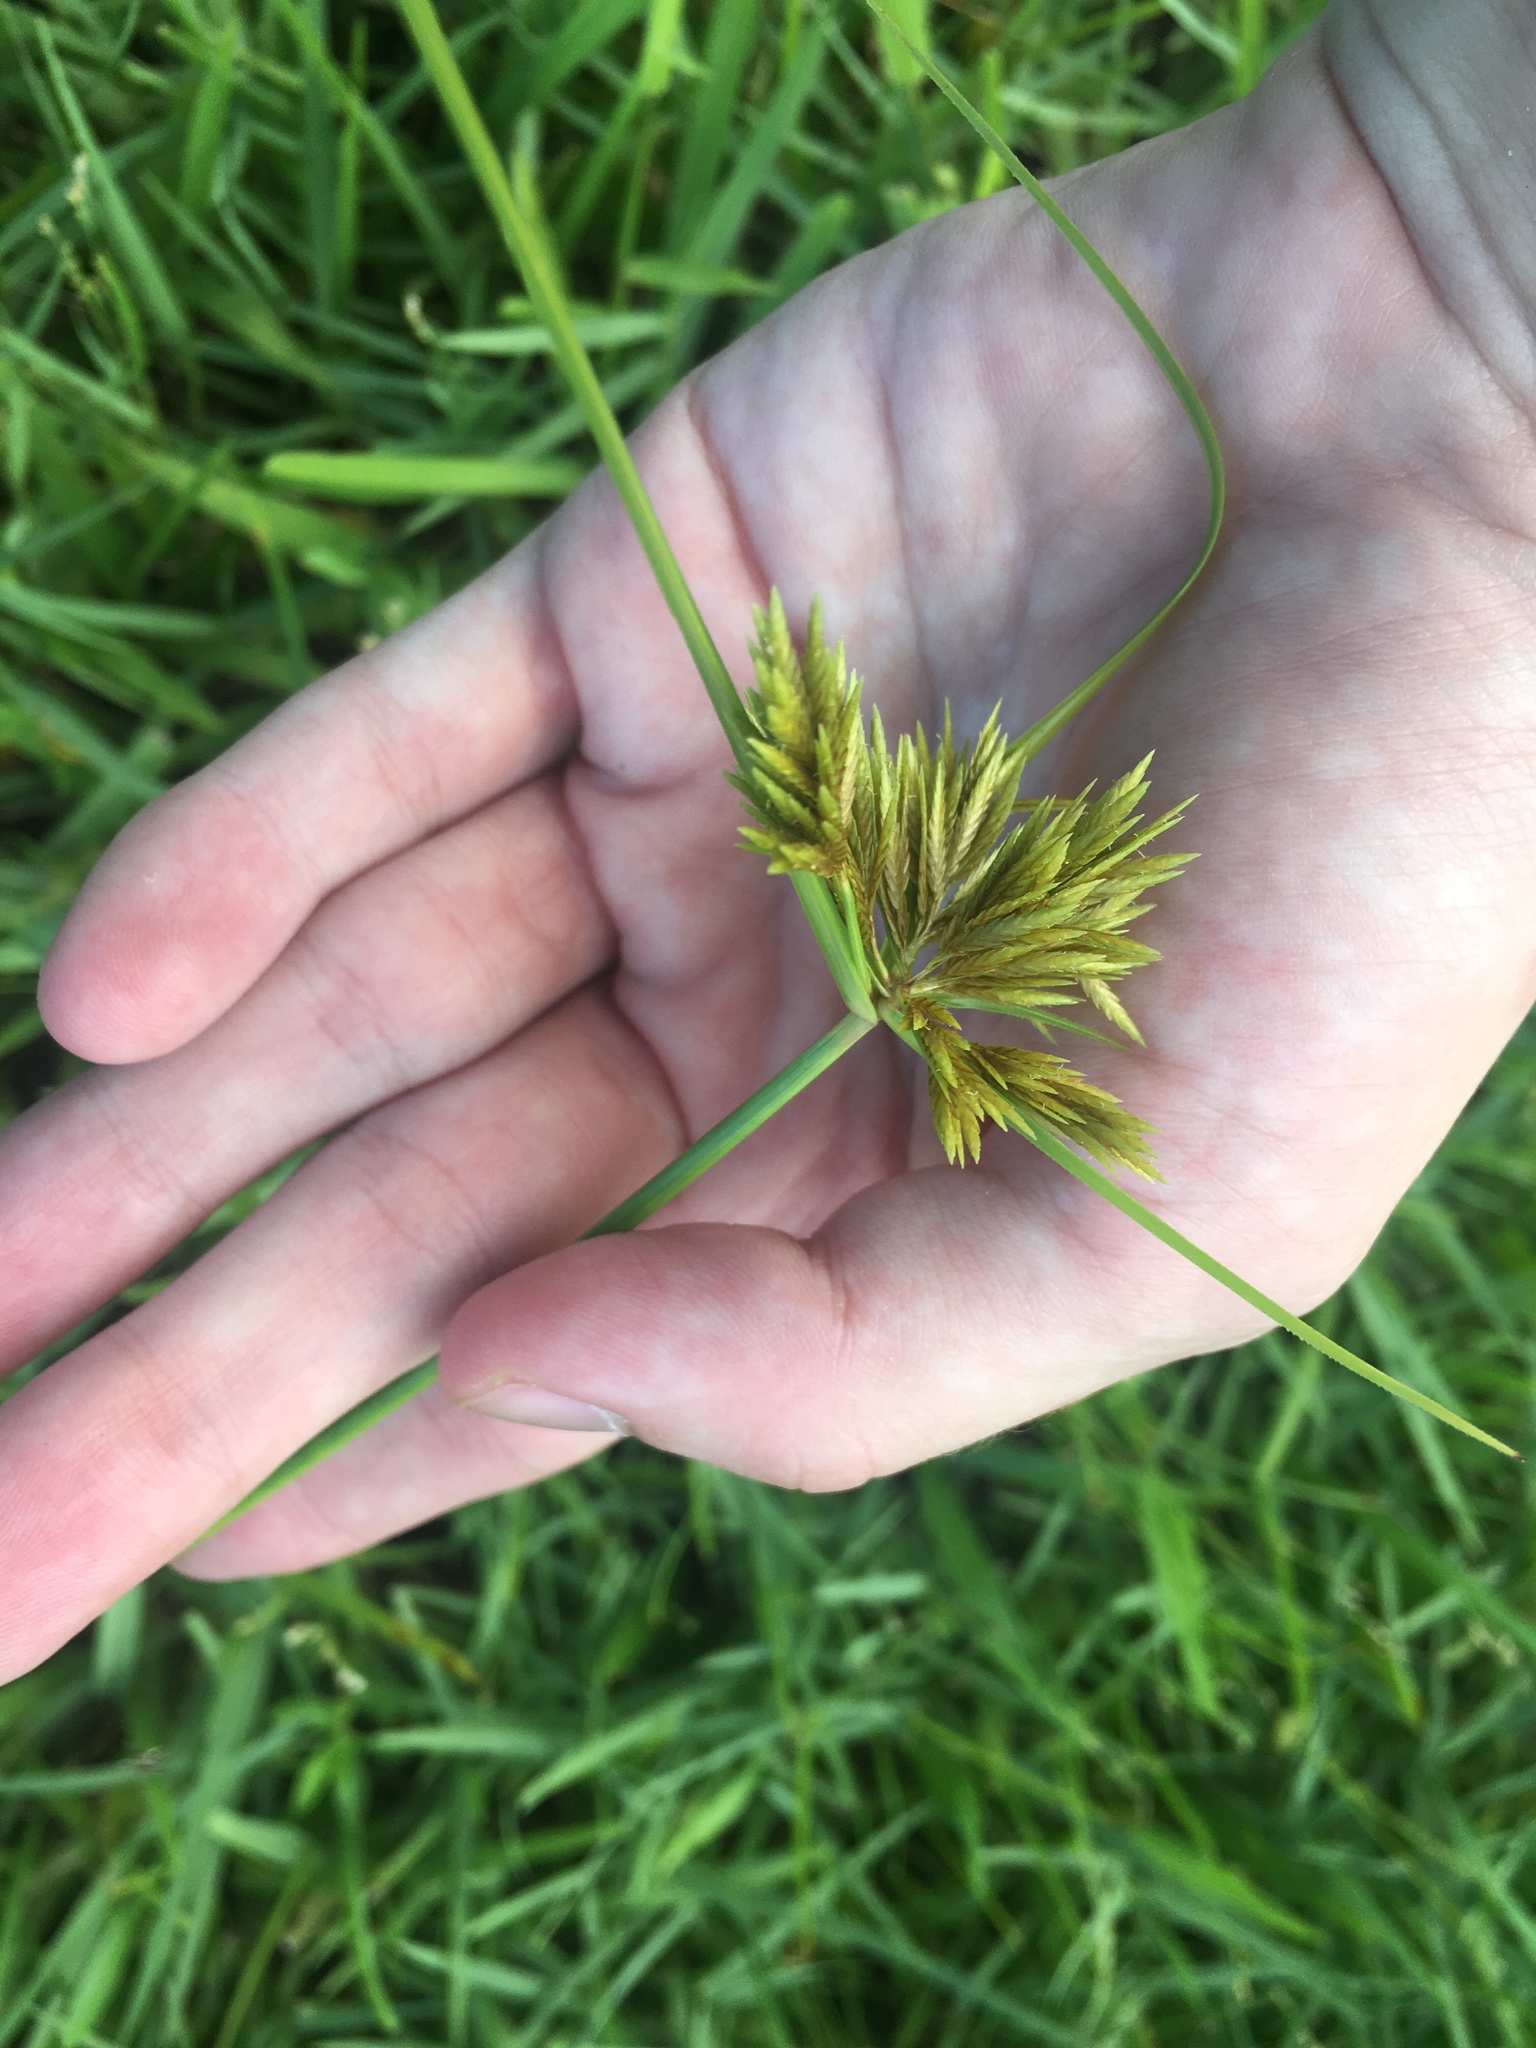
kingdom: Plantae
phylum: Tracheophyta
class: Liliopsida
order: Poales
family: Cyperaceae
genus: Cyperus
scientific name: Cyperus polystachyos
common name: Bunchy flat sedge
